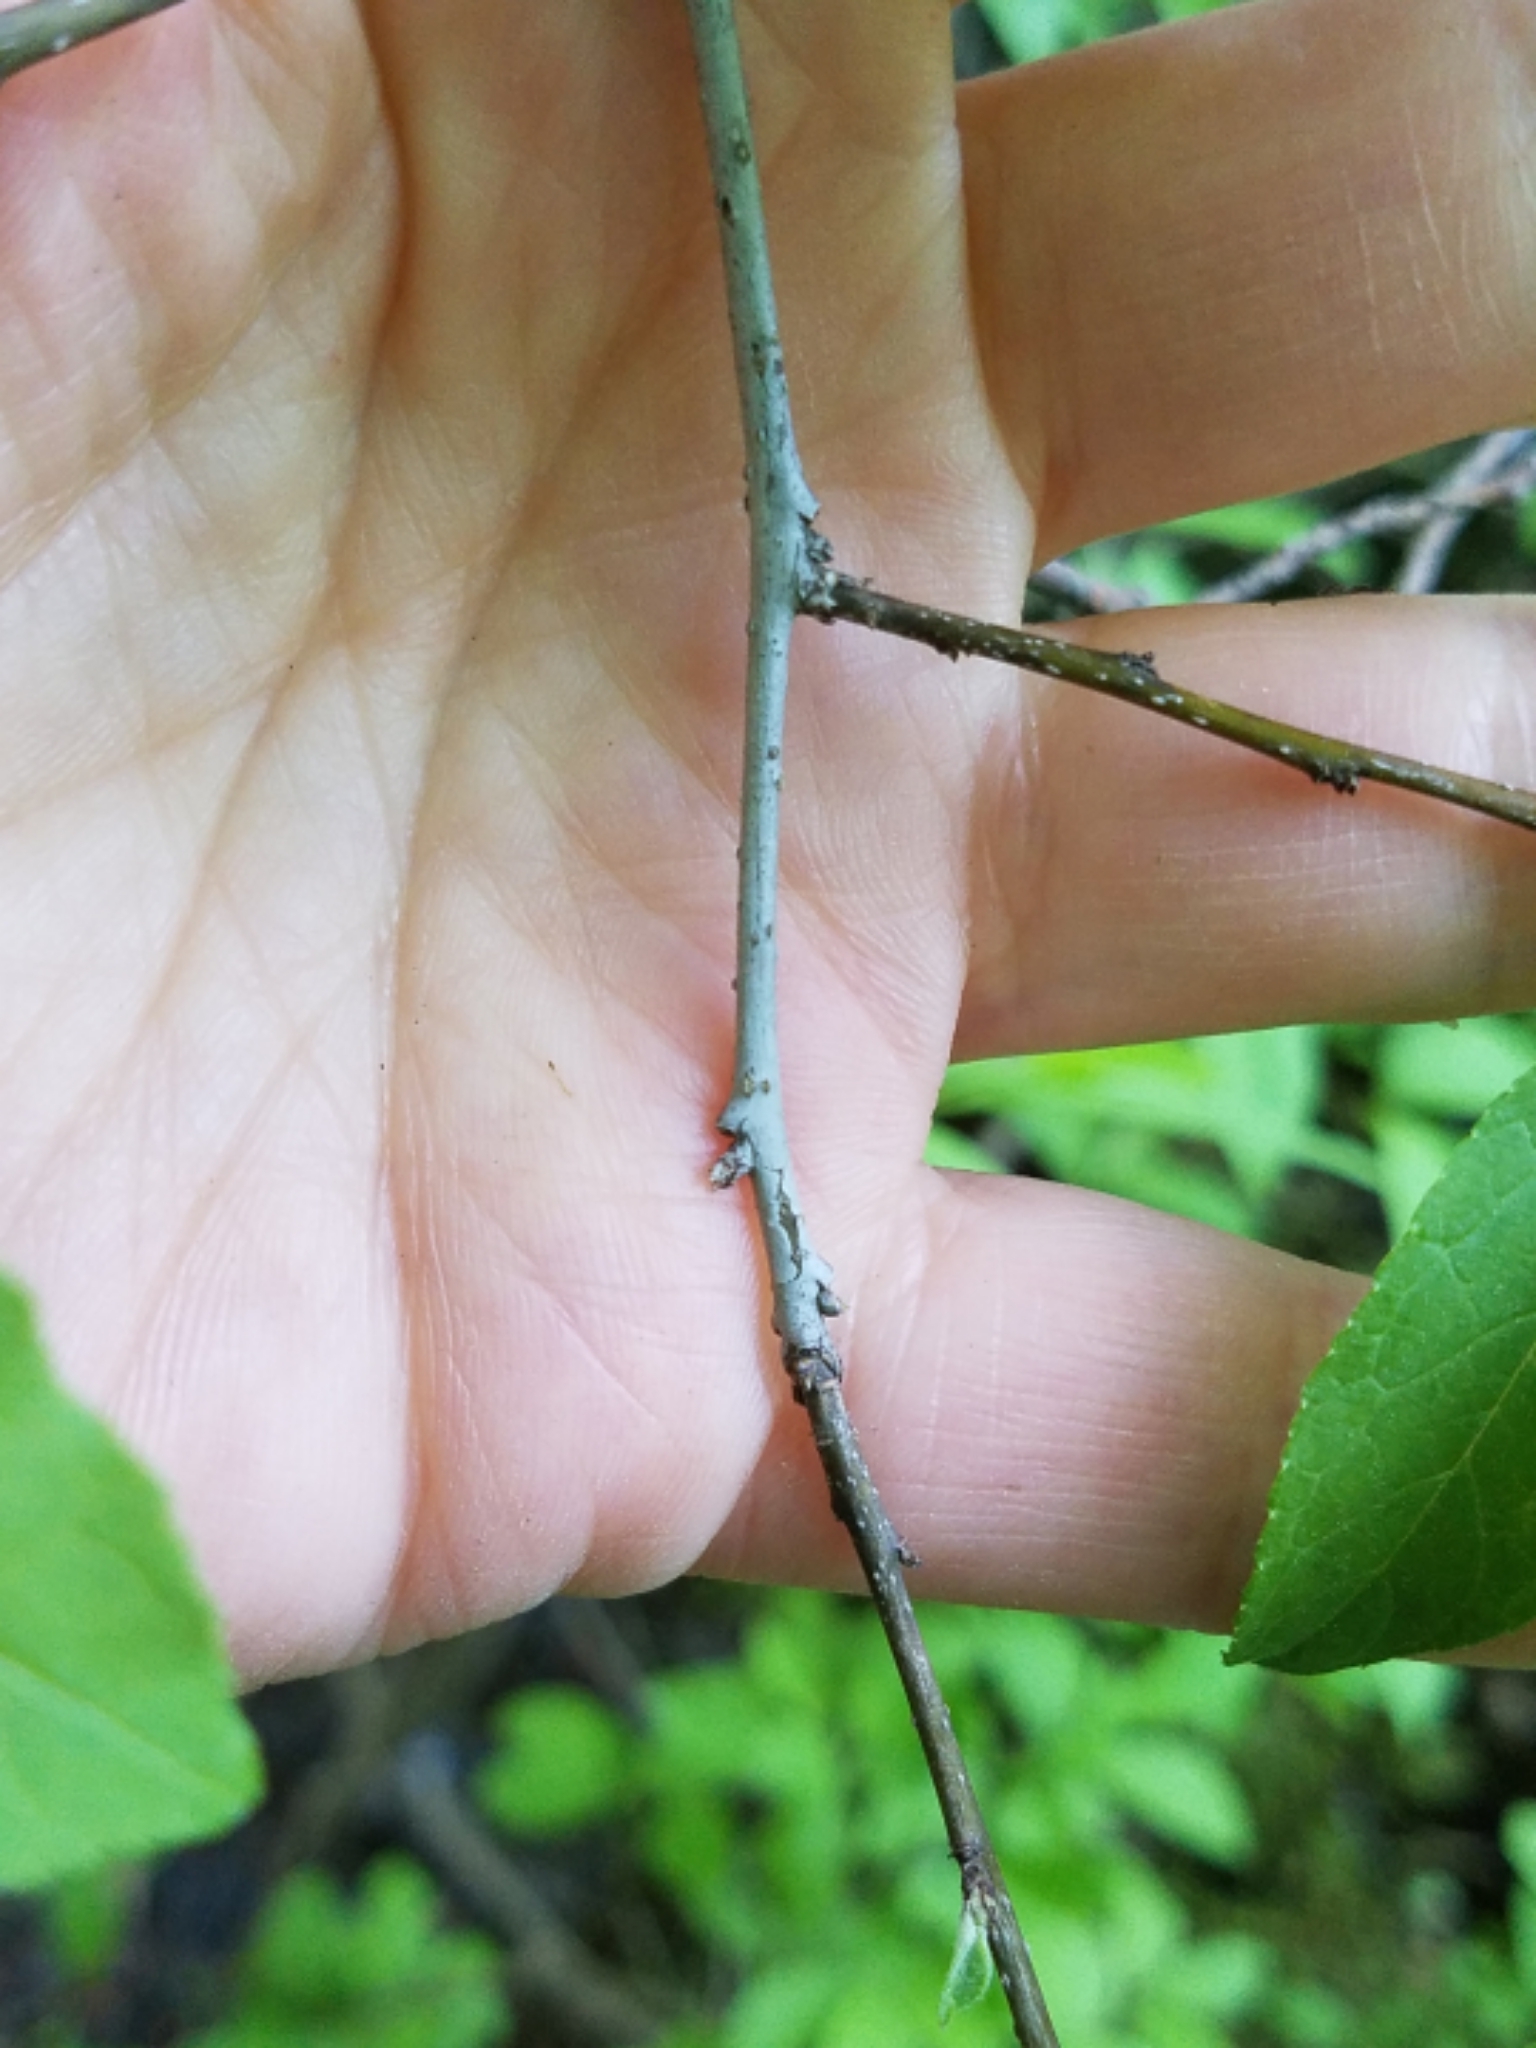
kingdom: Plantae
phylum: Tracheophyta
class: Magnoliopsida
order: Aquifoliales
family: Aquifoliaceae
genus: Ilex
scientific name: Ilex verticillata
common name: Virginia winterberry
